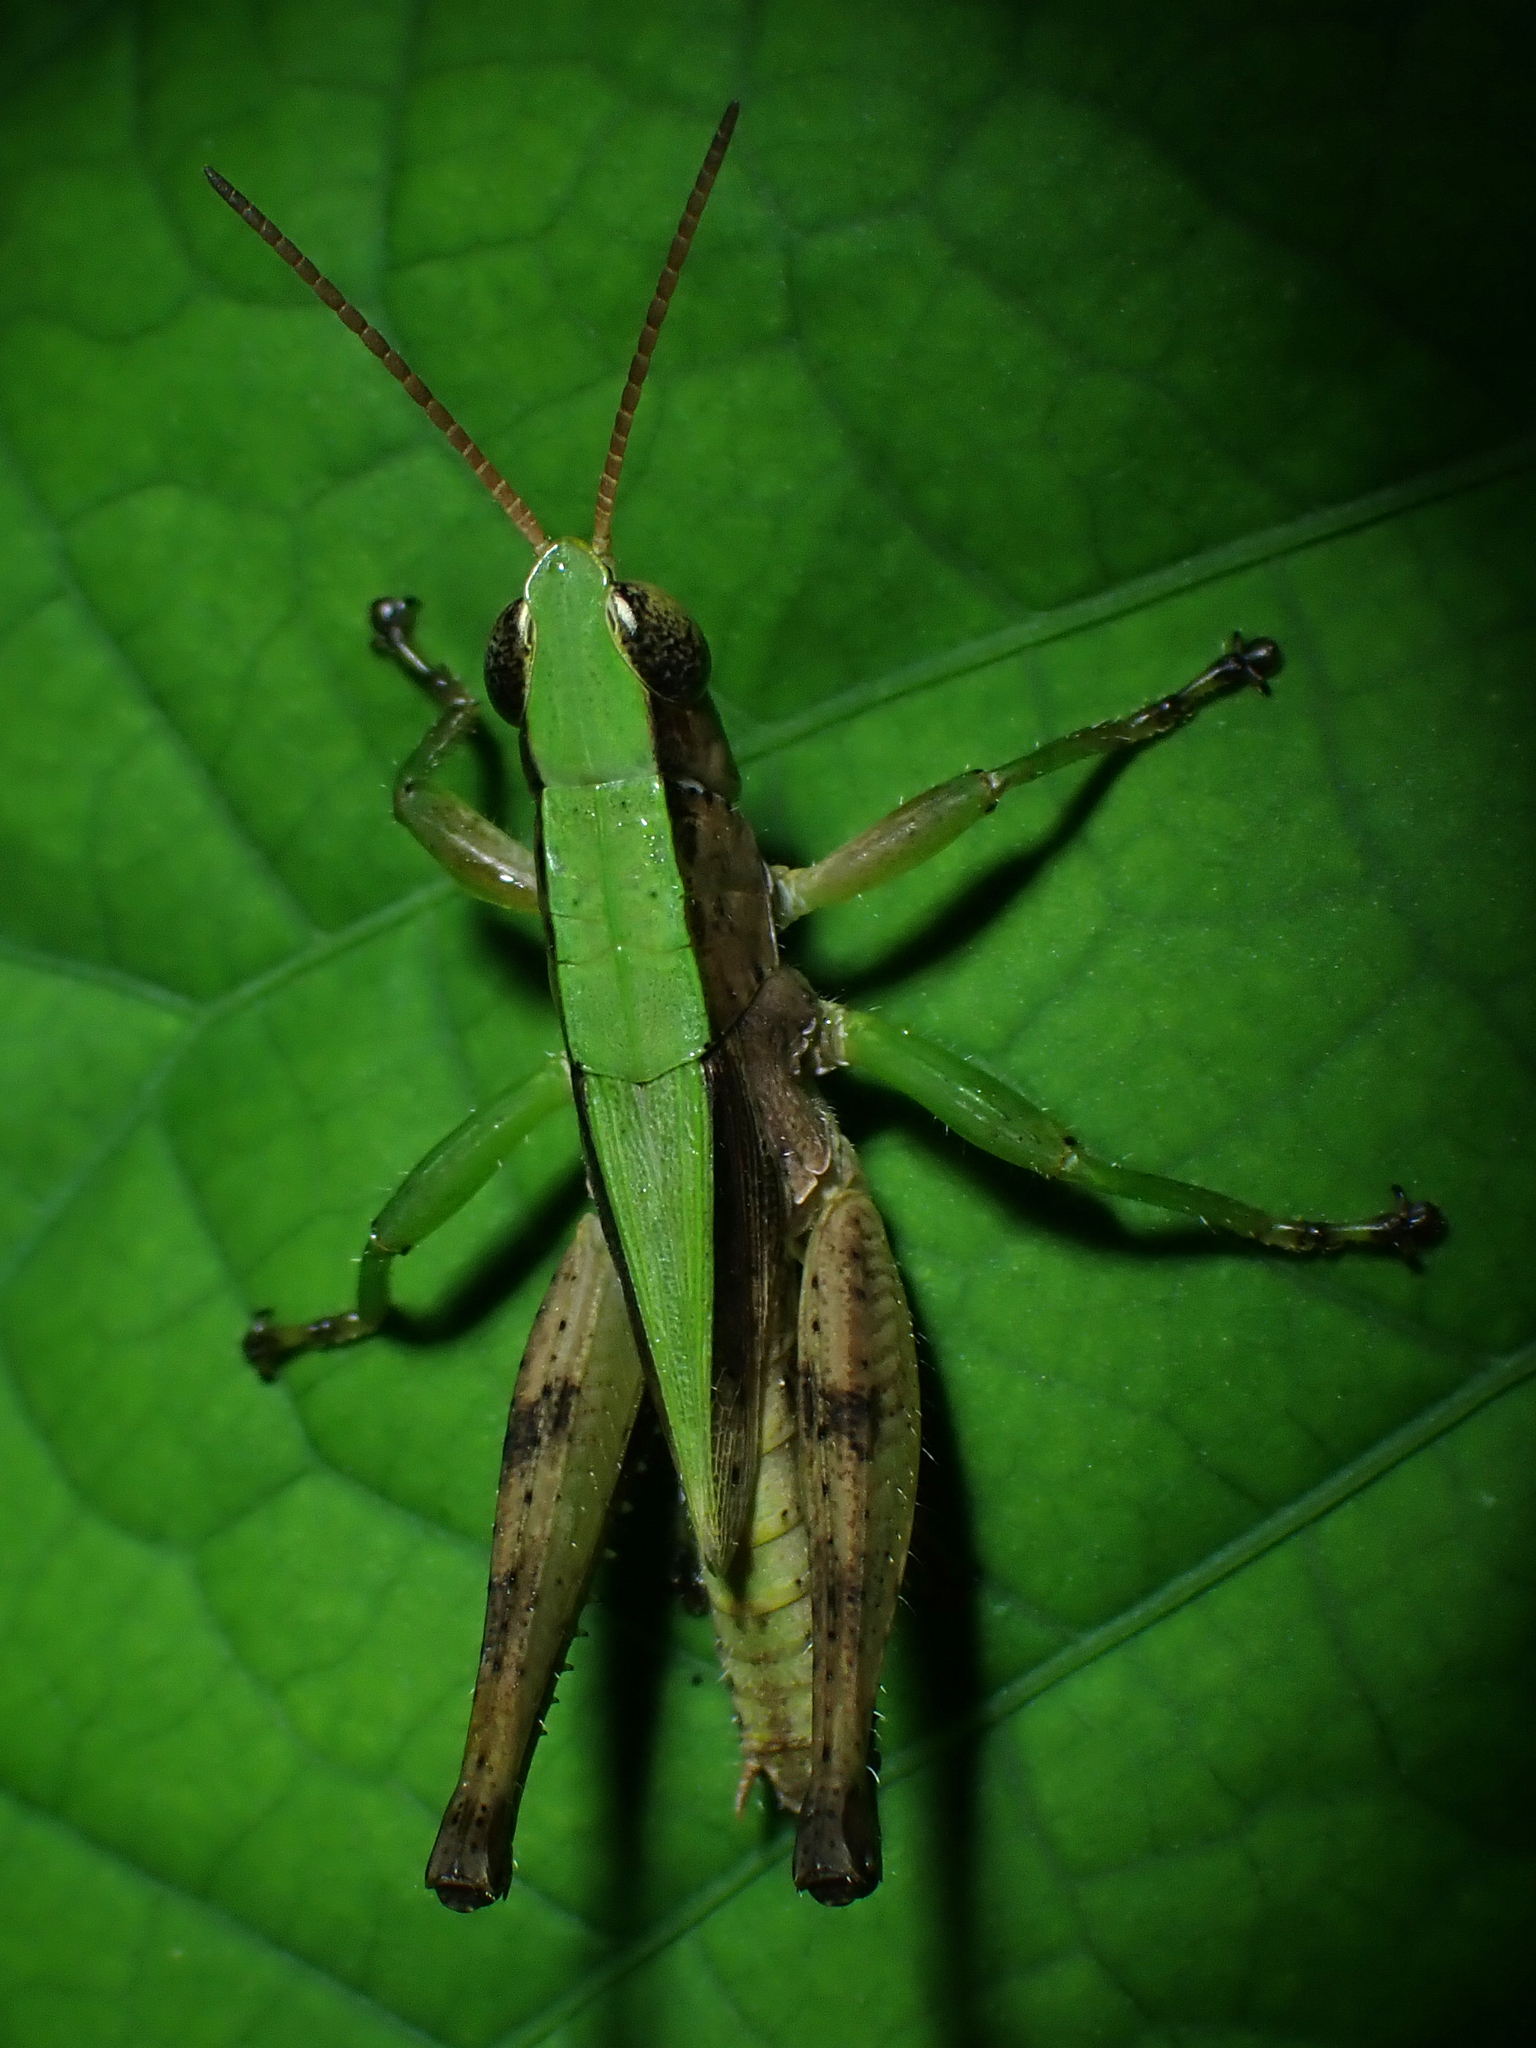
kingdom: Animalia
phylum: Arthropoda
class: Insecta
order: Orthoptera
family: Acrididae
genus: Dichromorpha
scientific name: Dichromorpha viridis
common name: Short-winged green grasshopper
